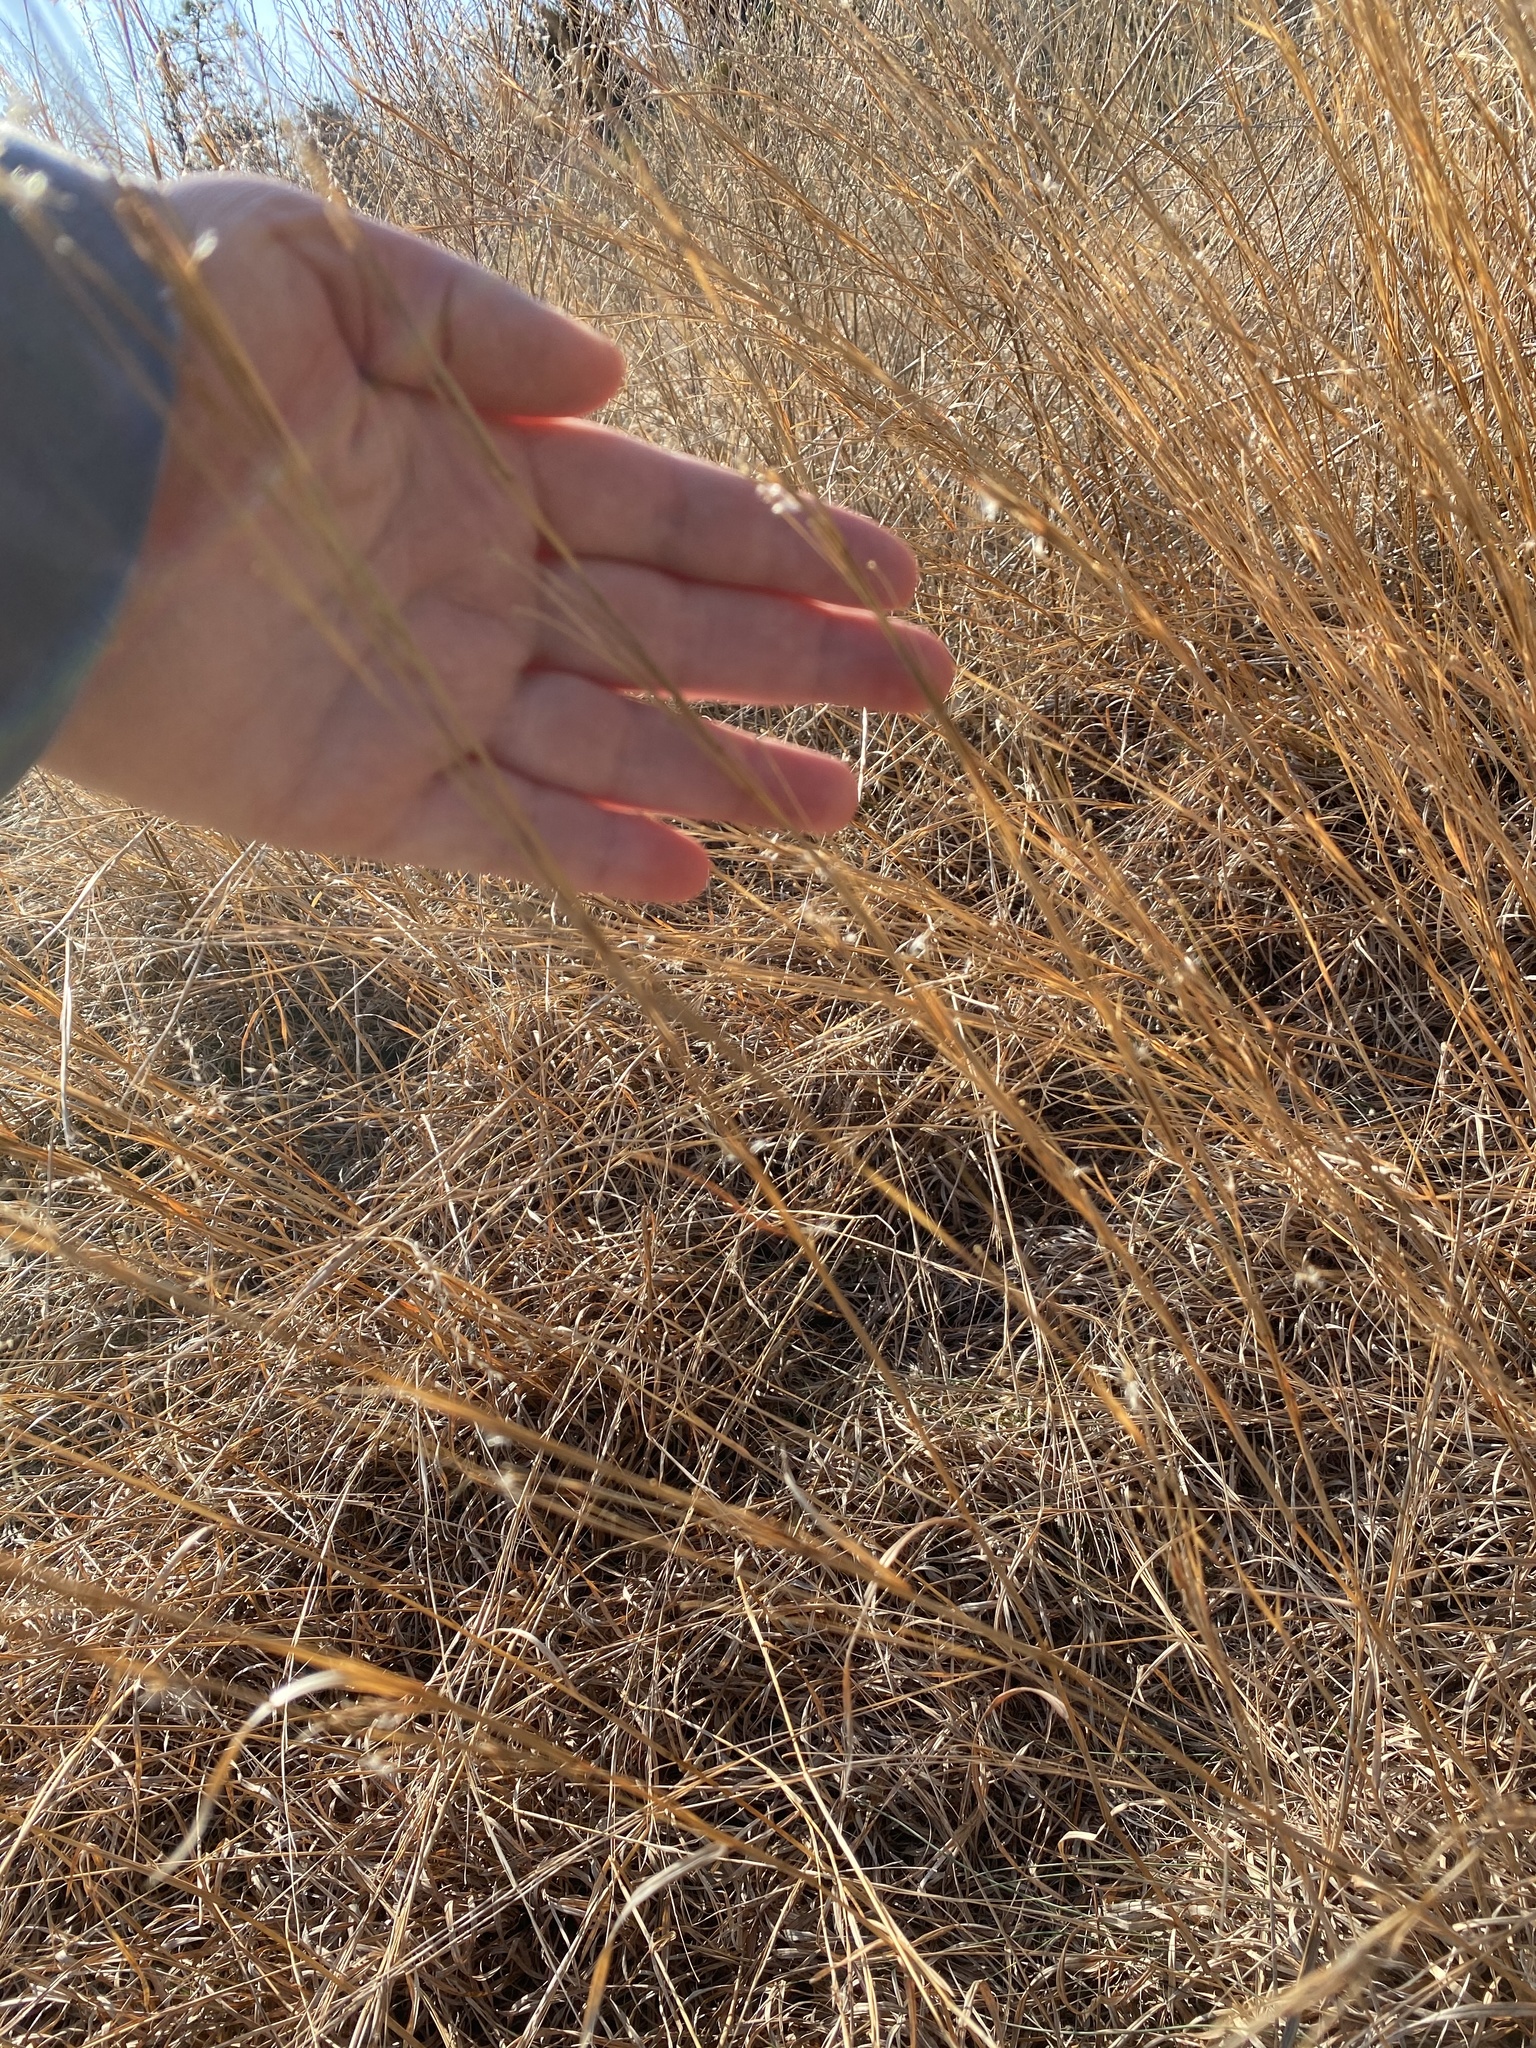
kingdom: Plantae
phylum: Tracheophyta
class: Liliopsida
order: Poales
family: Poaceae
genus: Schizachyrium
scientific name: Schizachyrium scoparium
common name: Little bluestem
